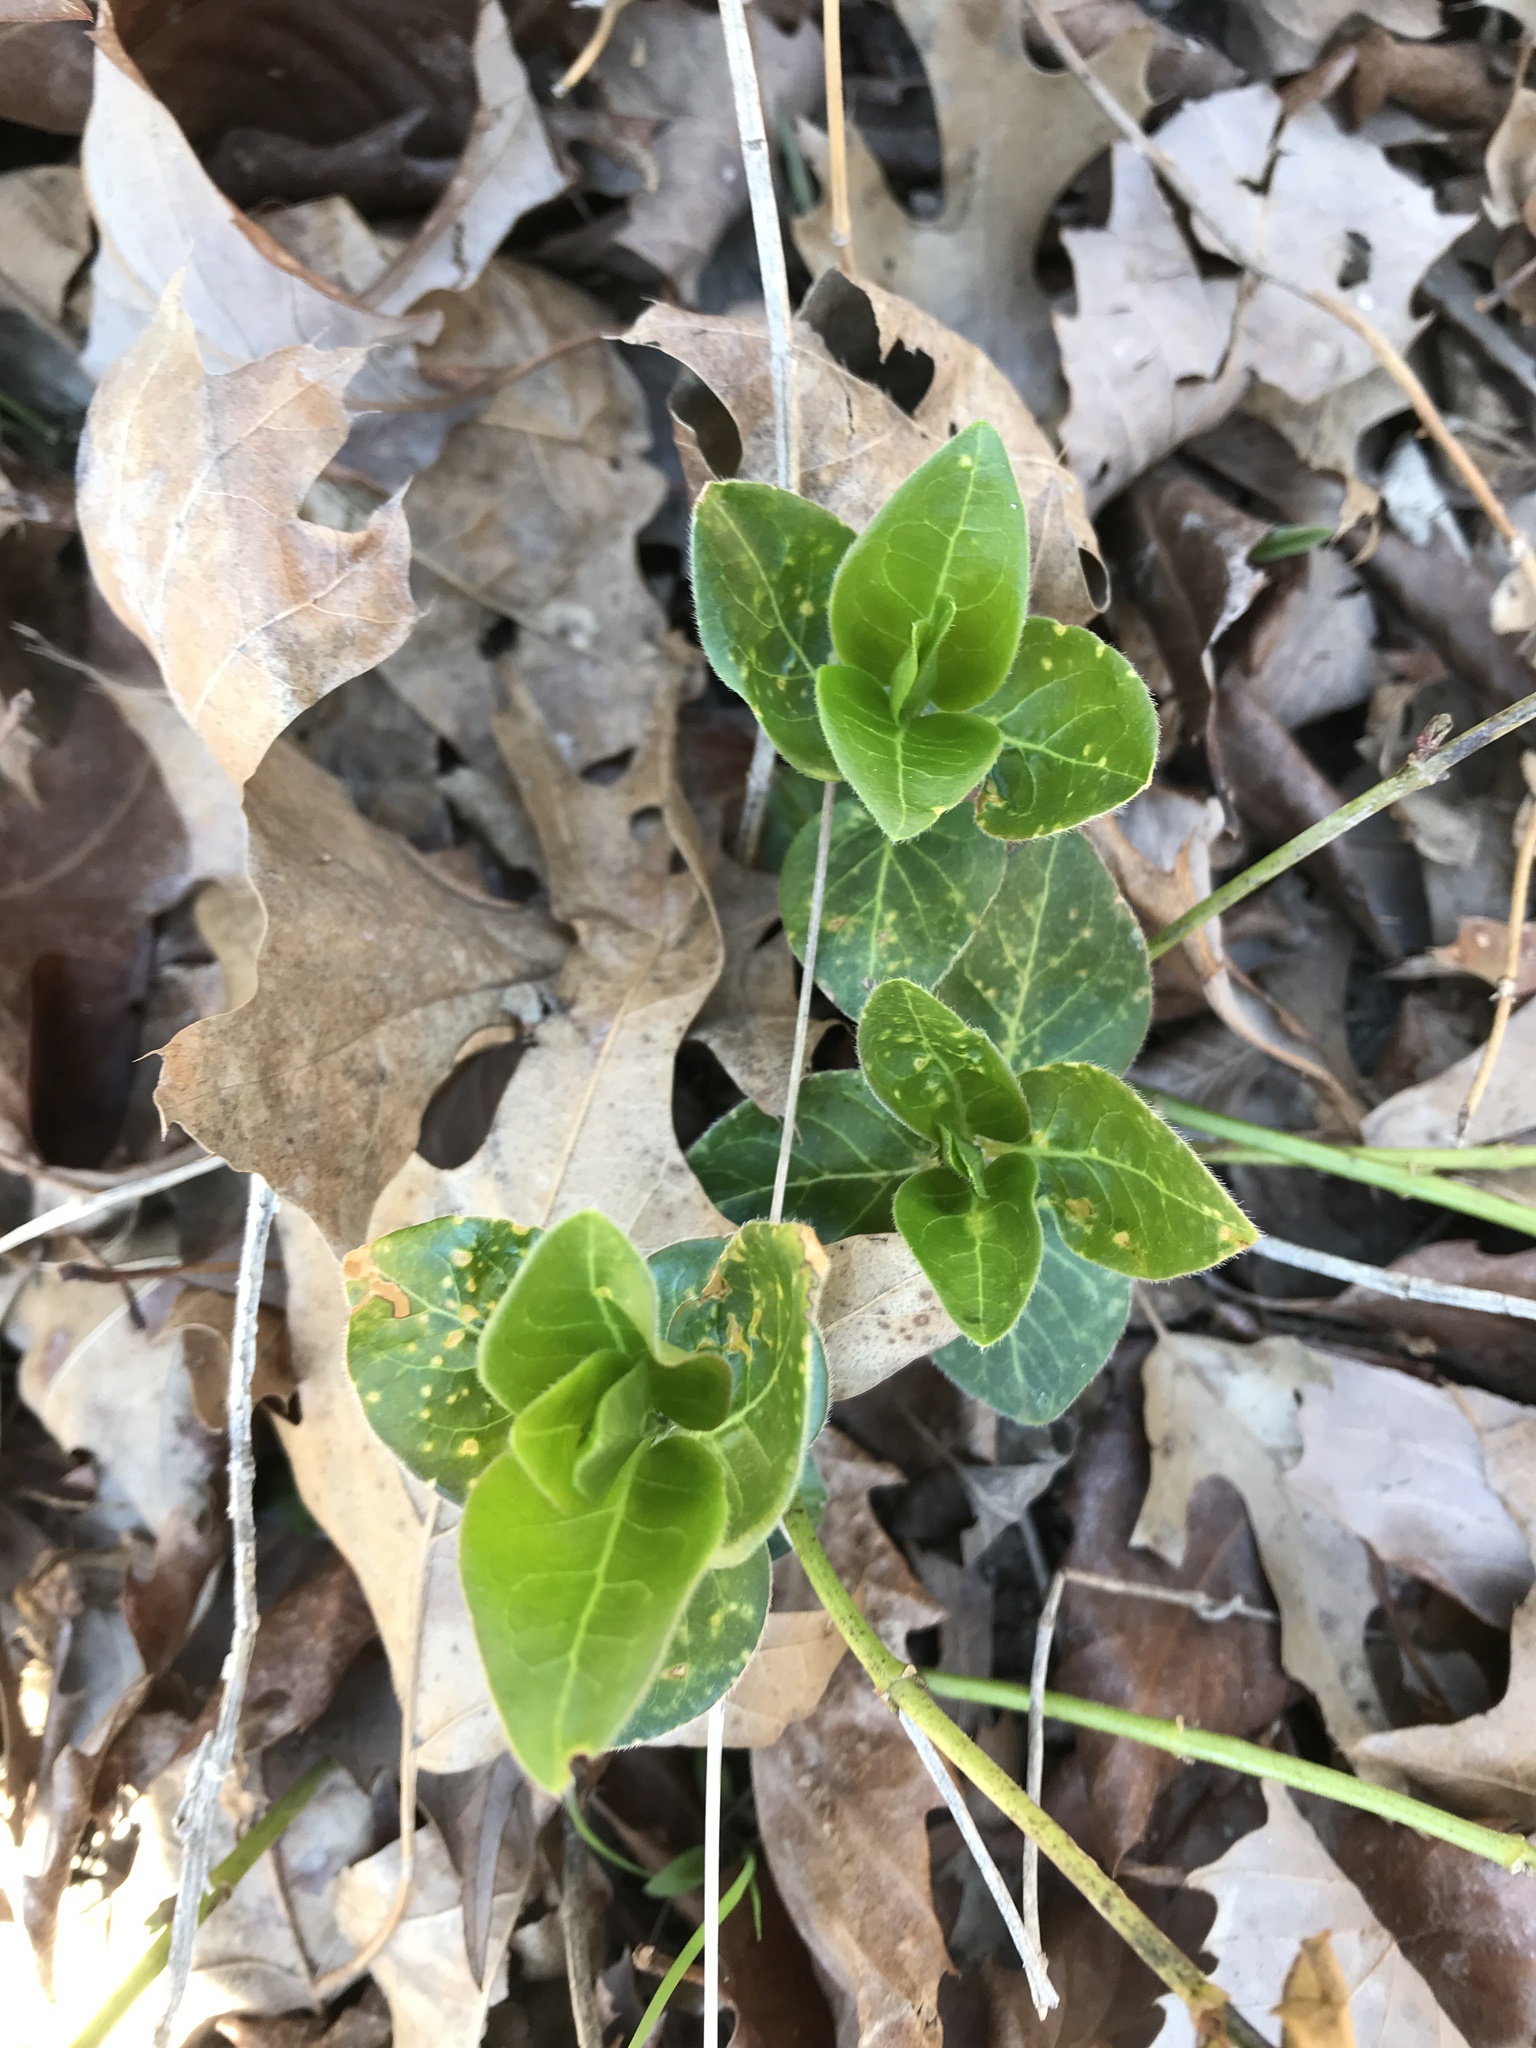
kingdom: Plantae
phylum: Tracheophyta
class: Magnoliopsida
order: Gentianales
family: Apocynaceae
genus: Vinca
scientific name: Vinca major
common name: Greater periwinkle
